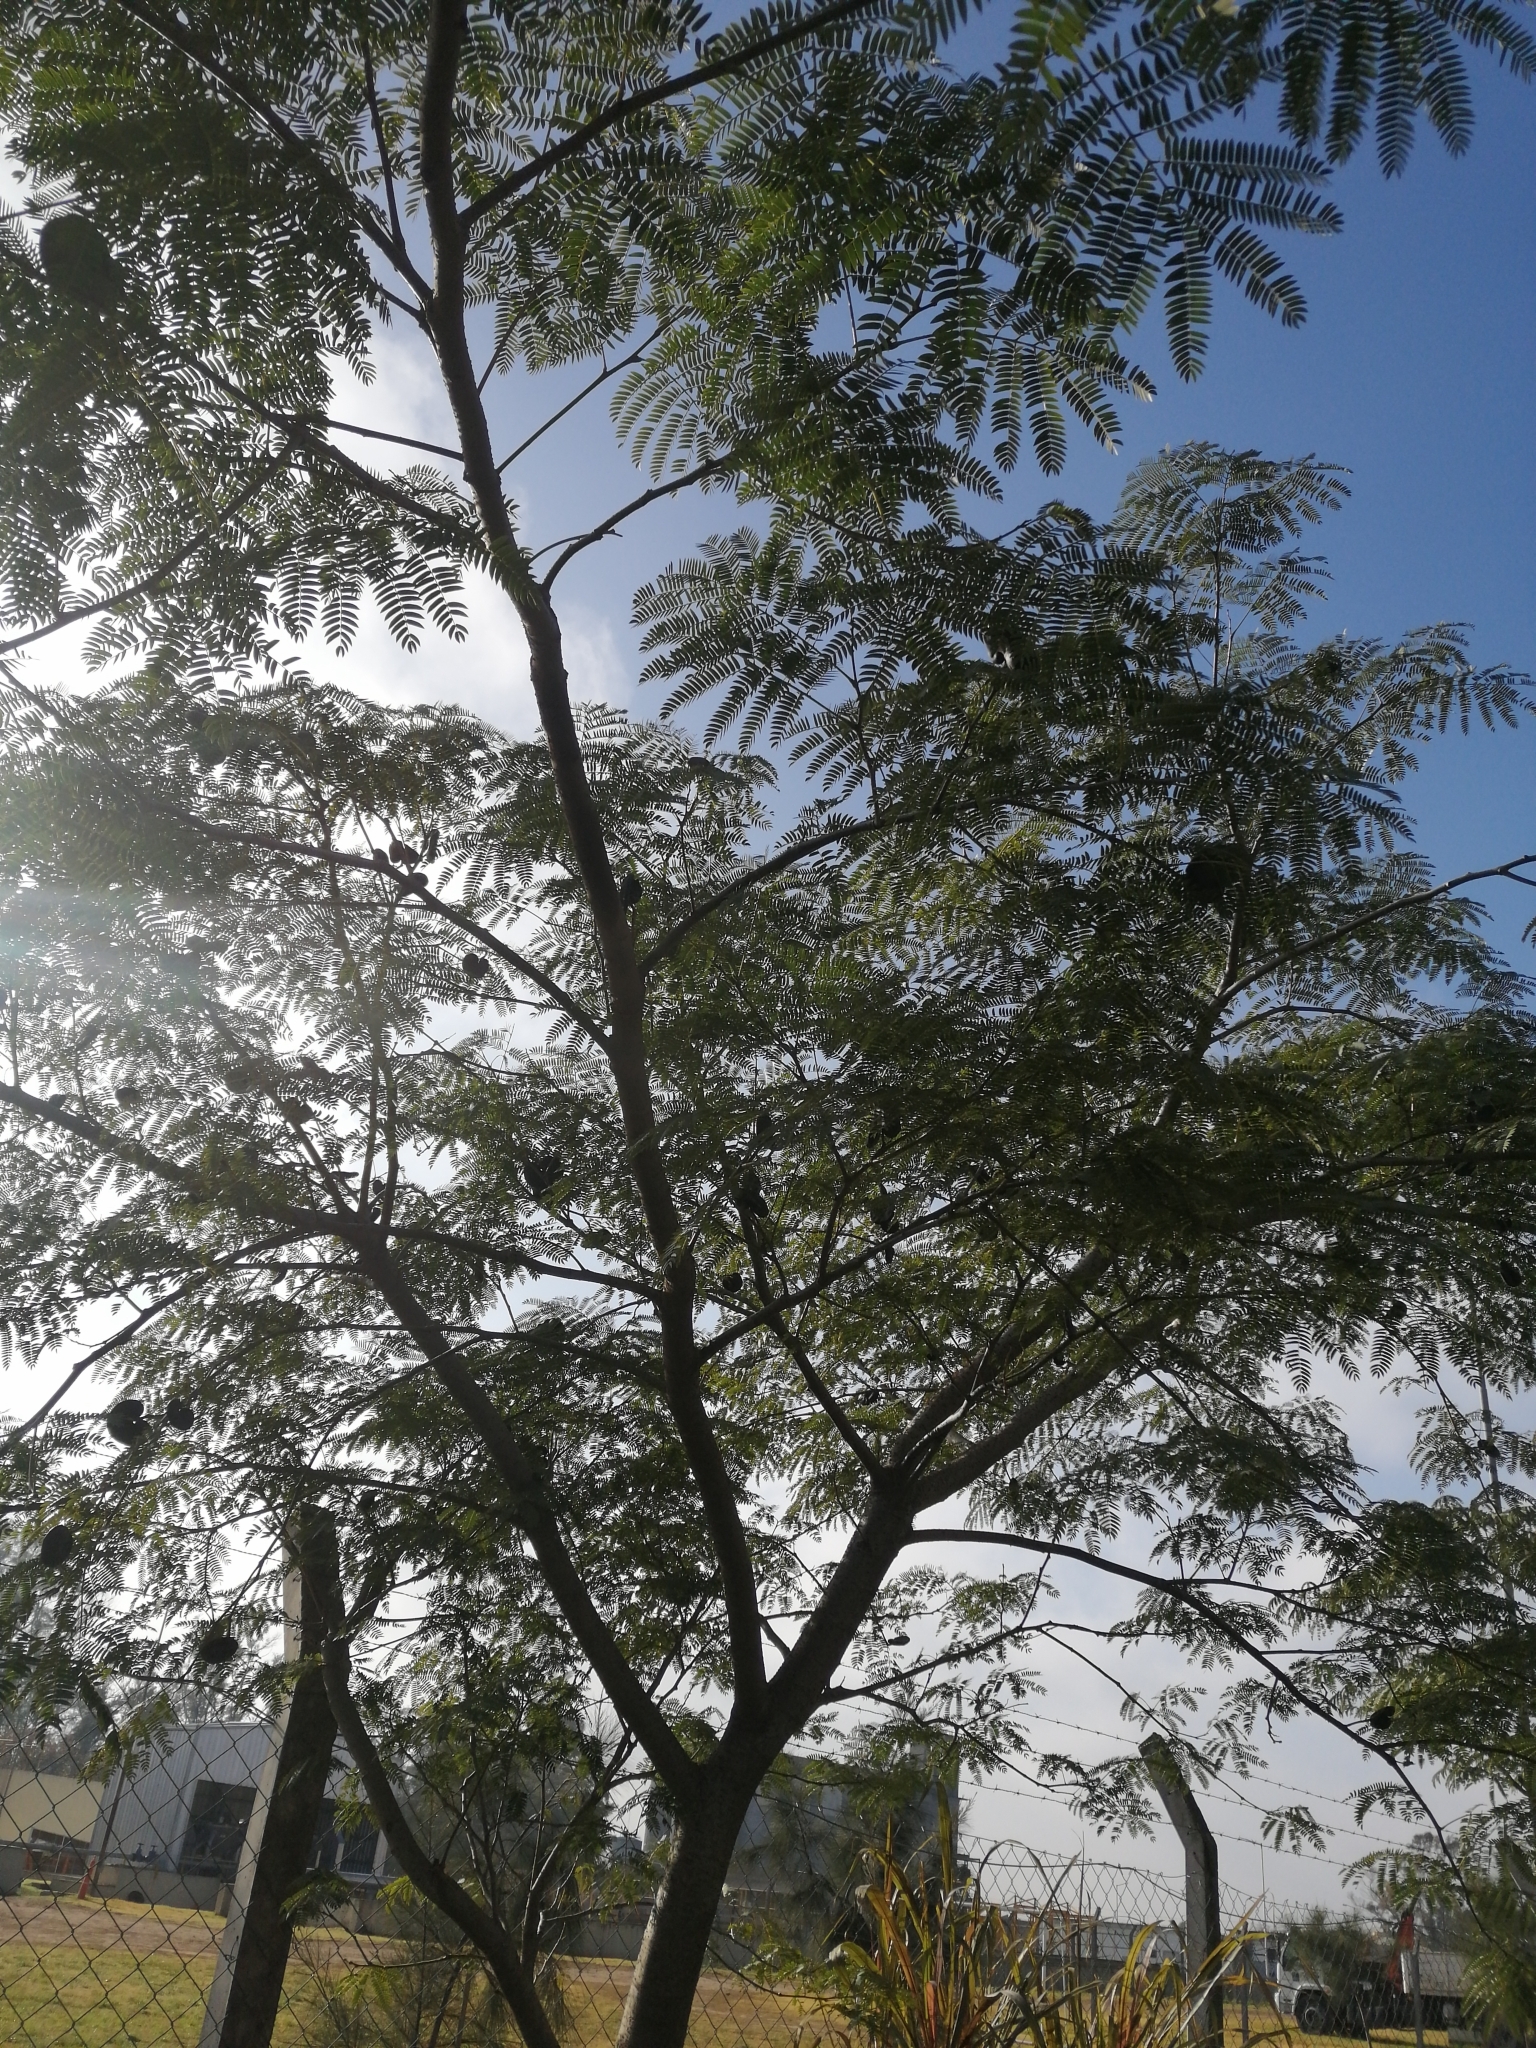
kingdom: Plantae
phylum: Tracheophyta
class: Magnoliopsida
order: Fabales
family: Fabaceae
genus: Enterolobium
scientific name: Enterolobium contortisiliquum
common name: Pacara earpod tree
